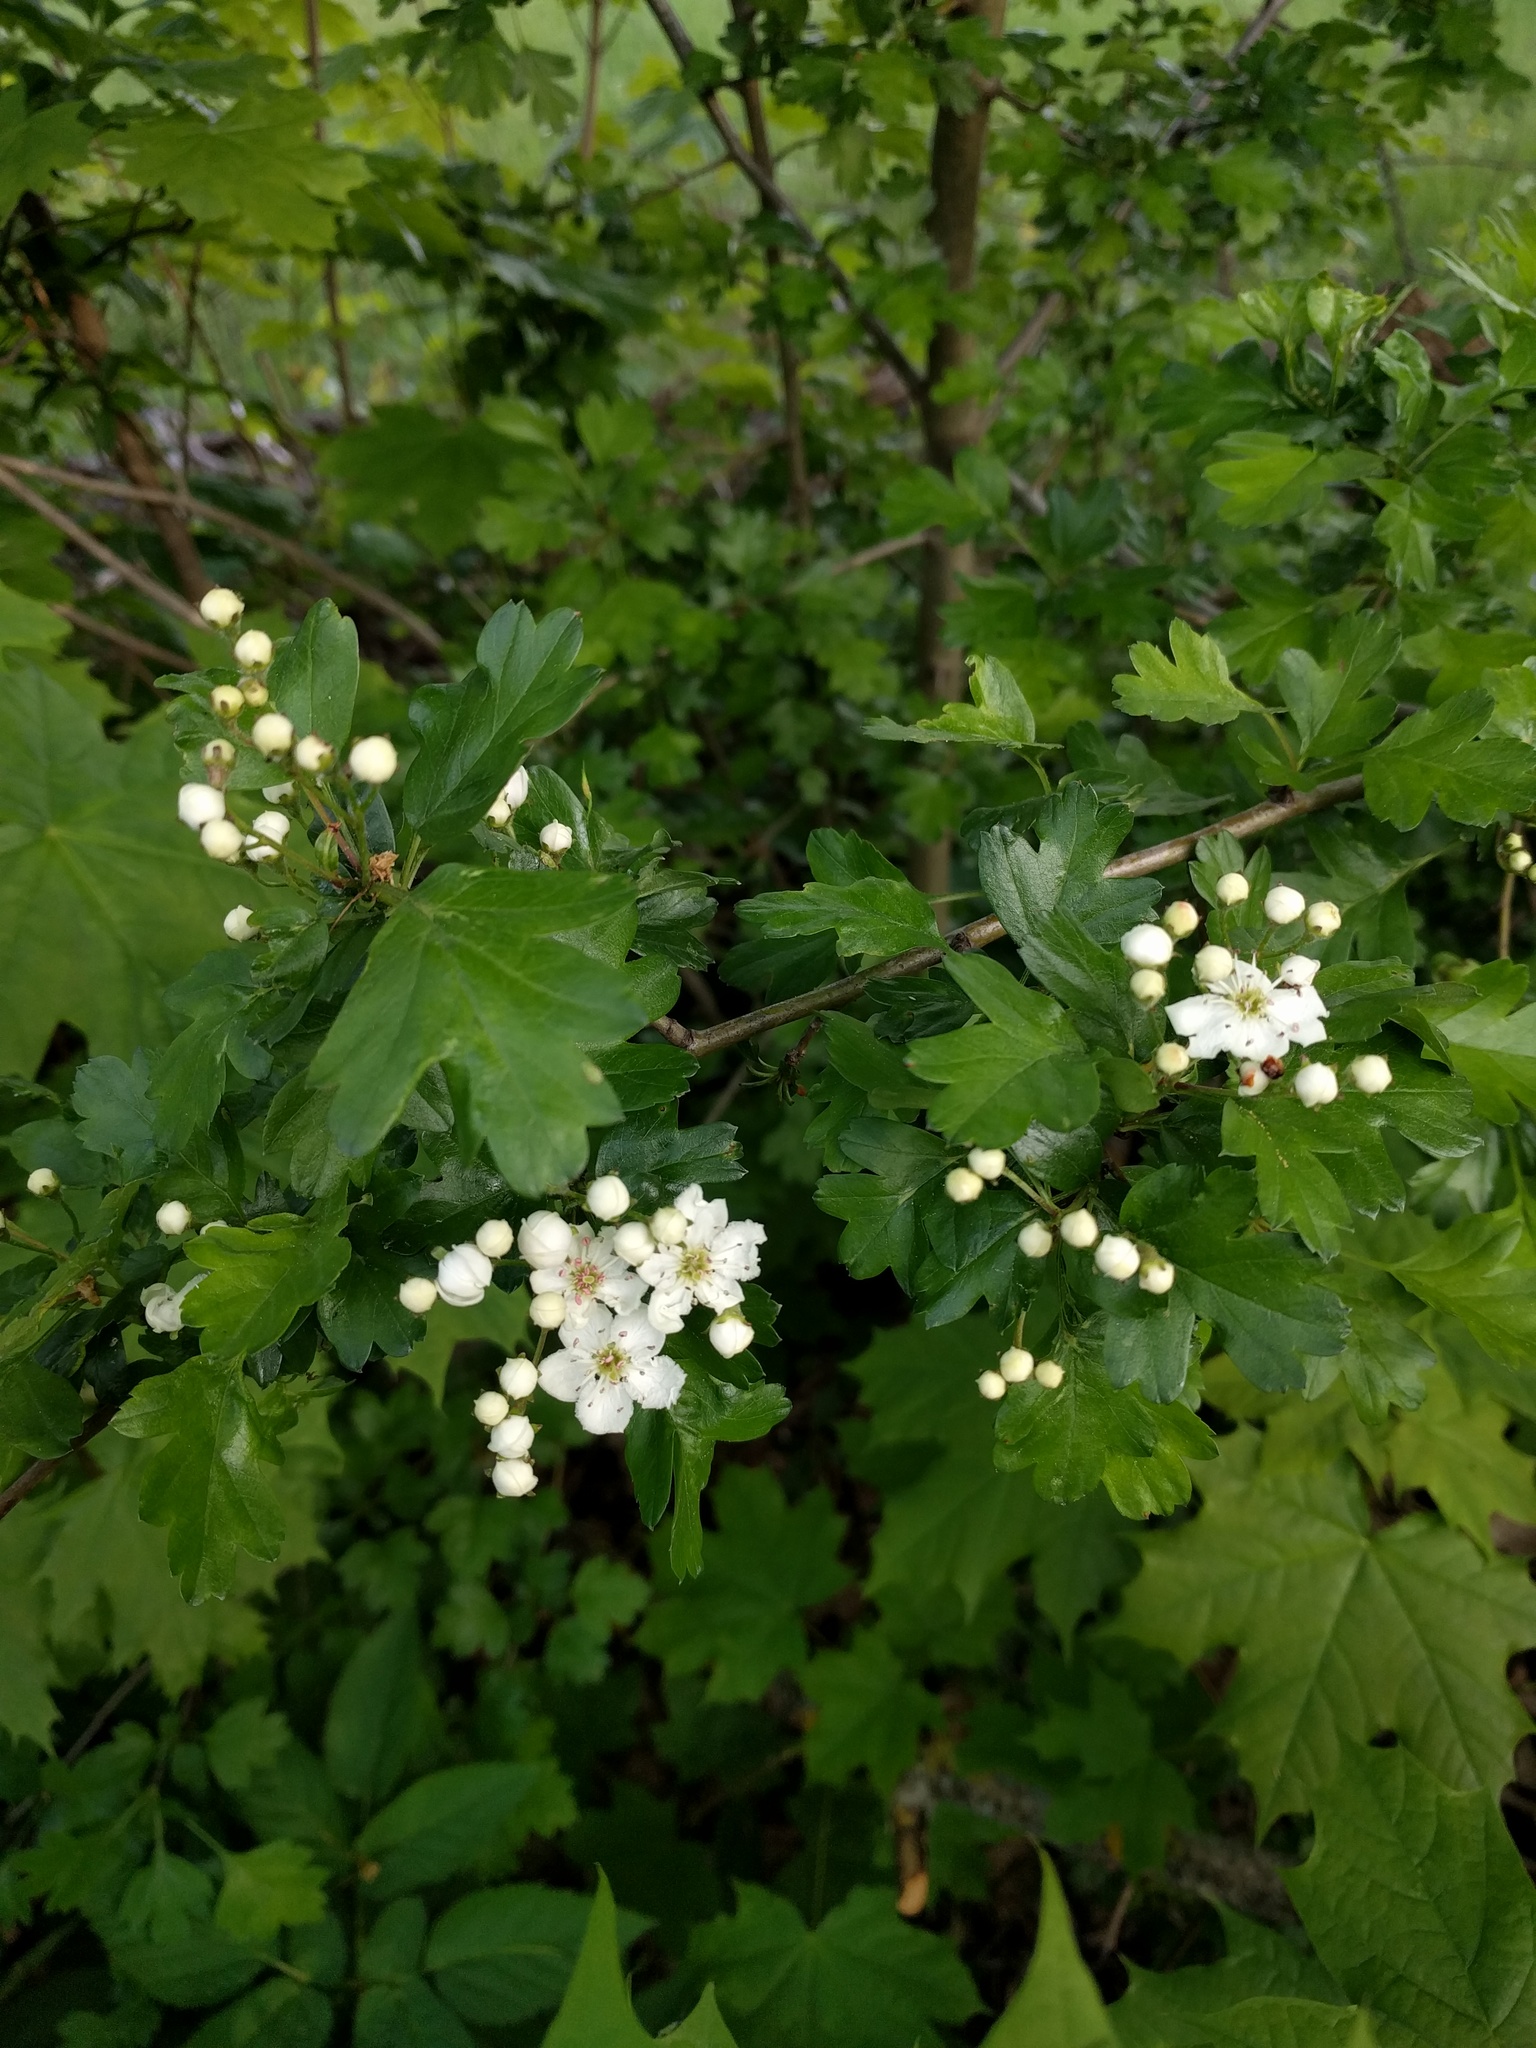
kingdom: Plantae
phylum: Tracheophyta
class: Magnoliopsida
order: Rosales
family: Rosaceae
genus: Crataegus
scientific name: Crataegus monogyna
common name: Hawthorn
